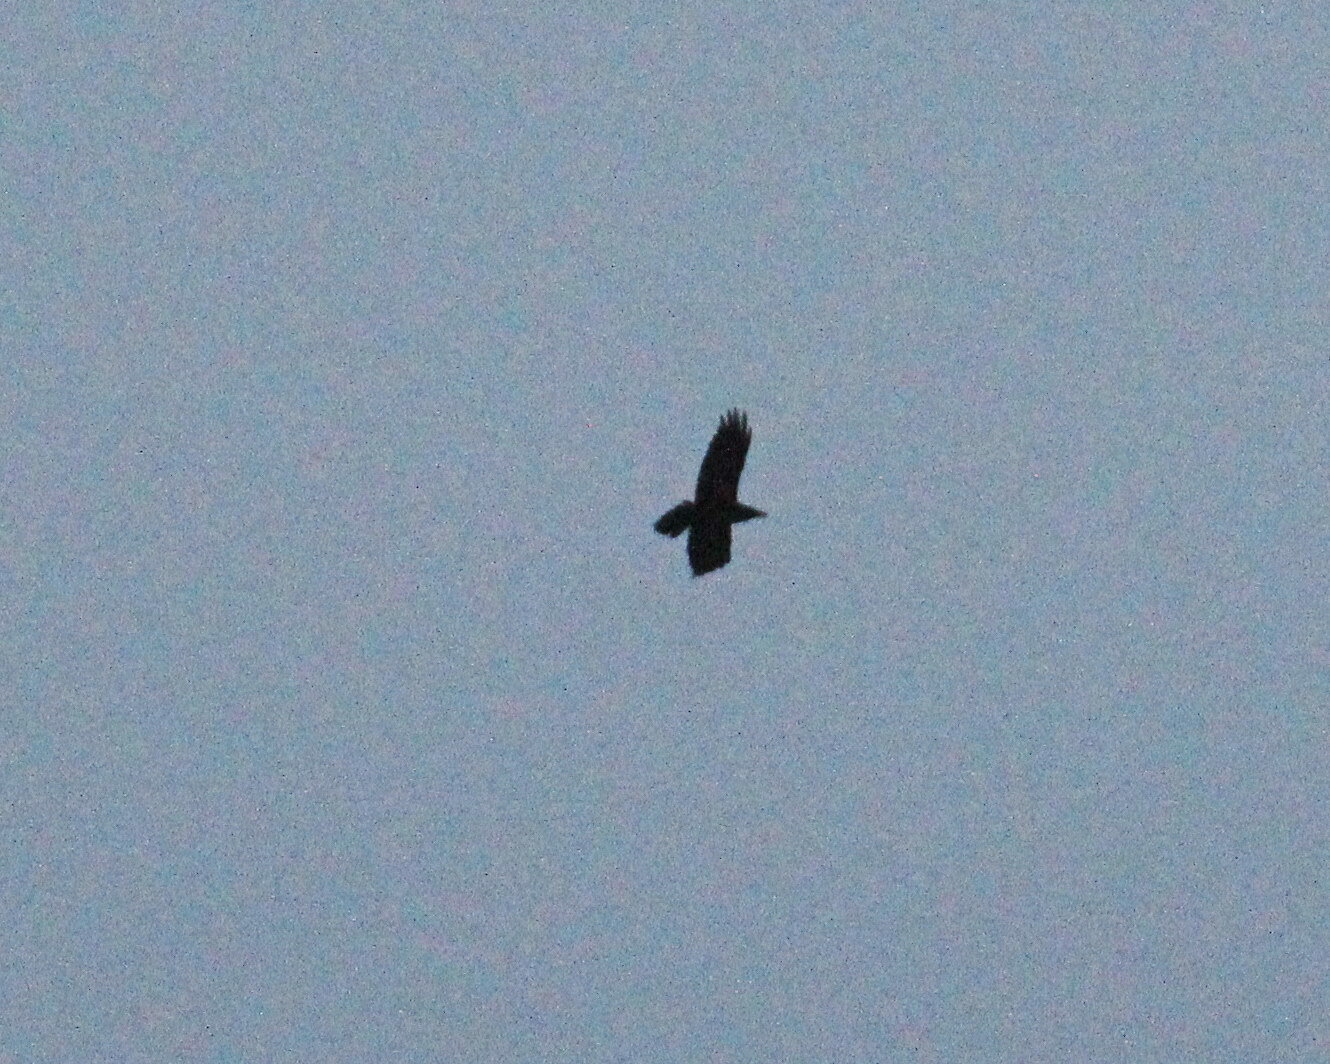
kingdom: Animalia
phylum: Chordata
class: Aves
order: Passeriformes
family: Corvidae
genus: Corvus
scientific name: Corvus corax
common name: Common raven
